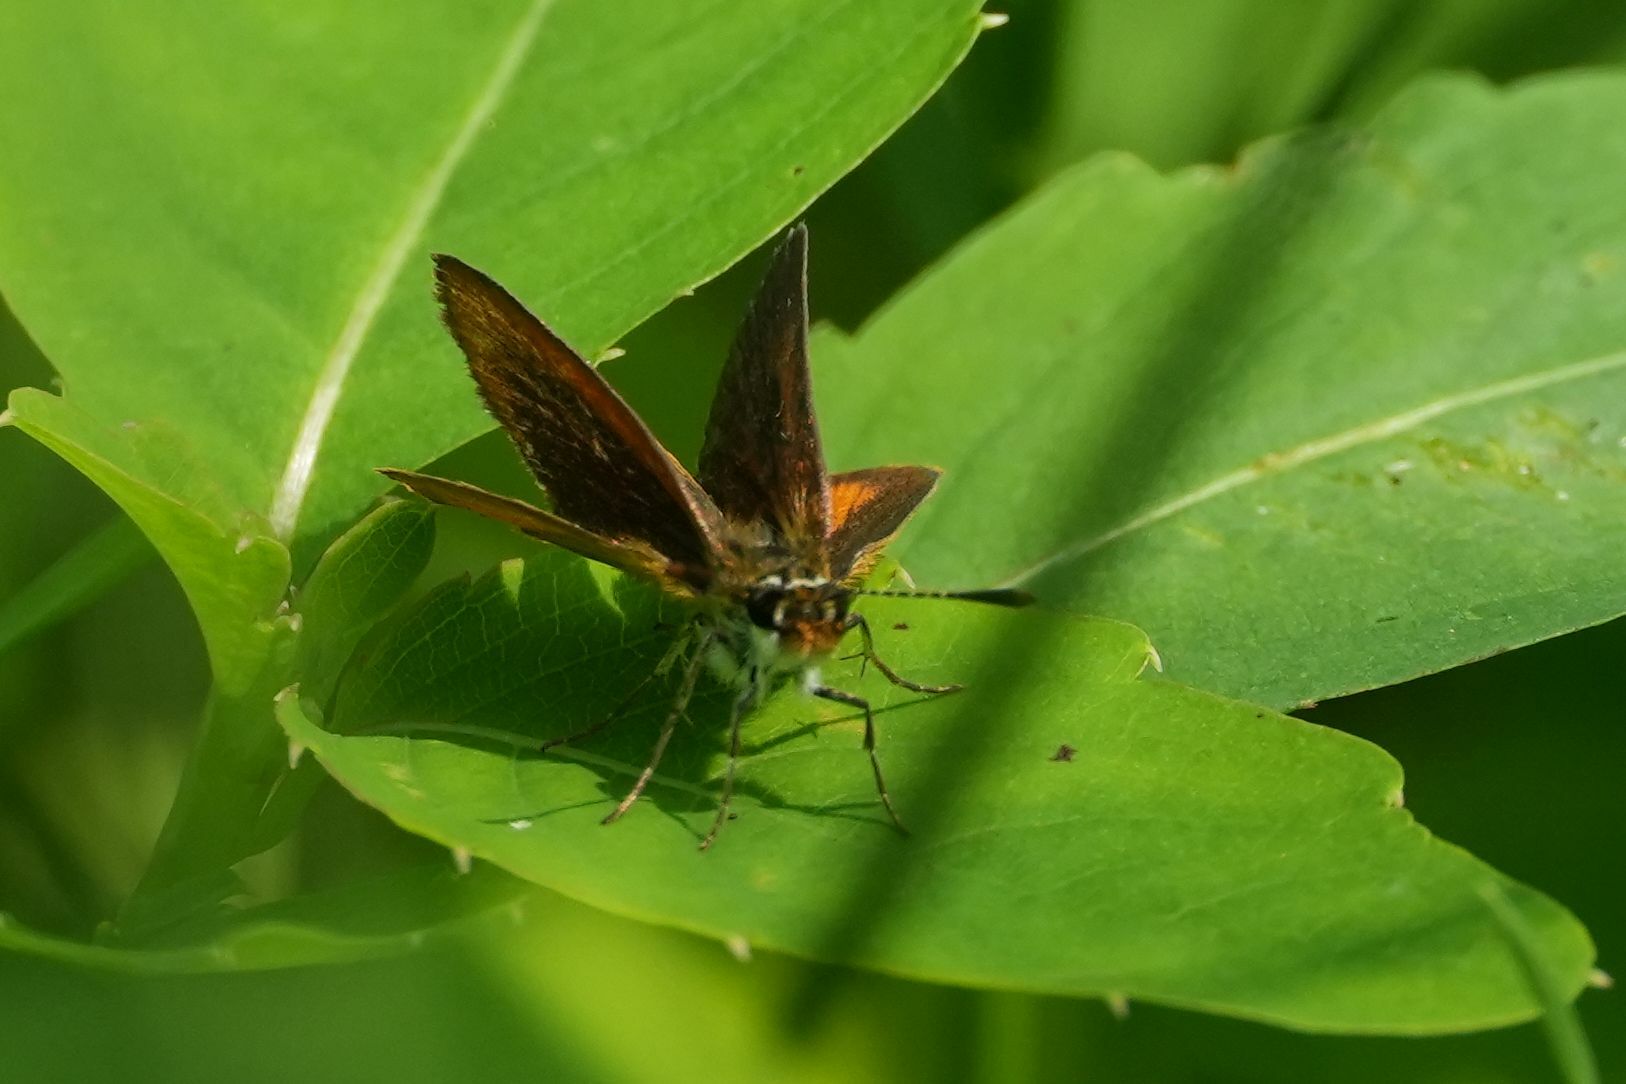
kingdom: Animalia
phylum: Arthropoda
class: Insecta
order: Lepidoptera
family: Hesperiidae
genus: Ancyloxypha
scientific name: Ancyloxypha numitor
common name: Least skipper
